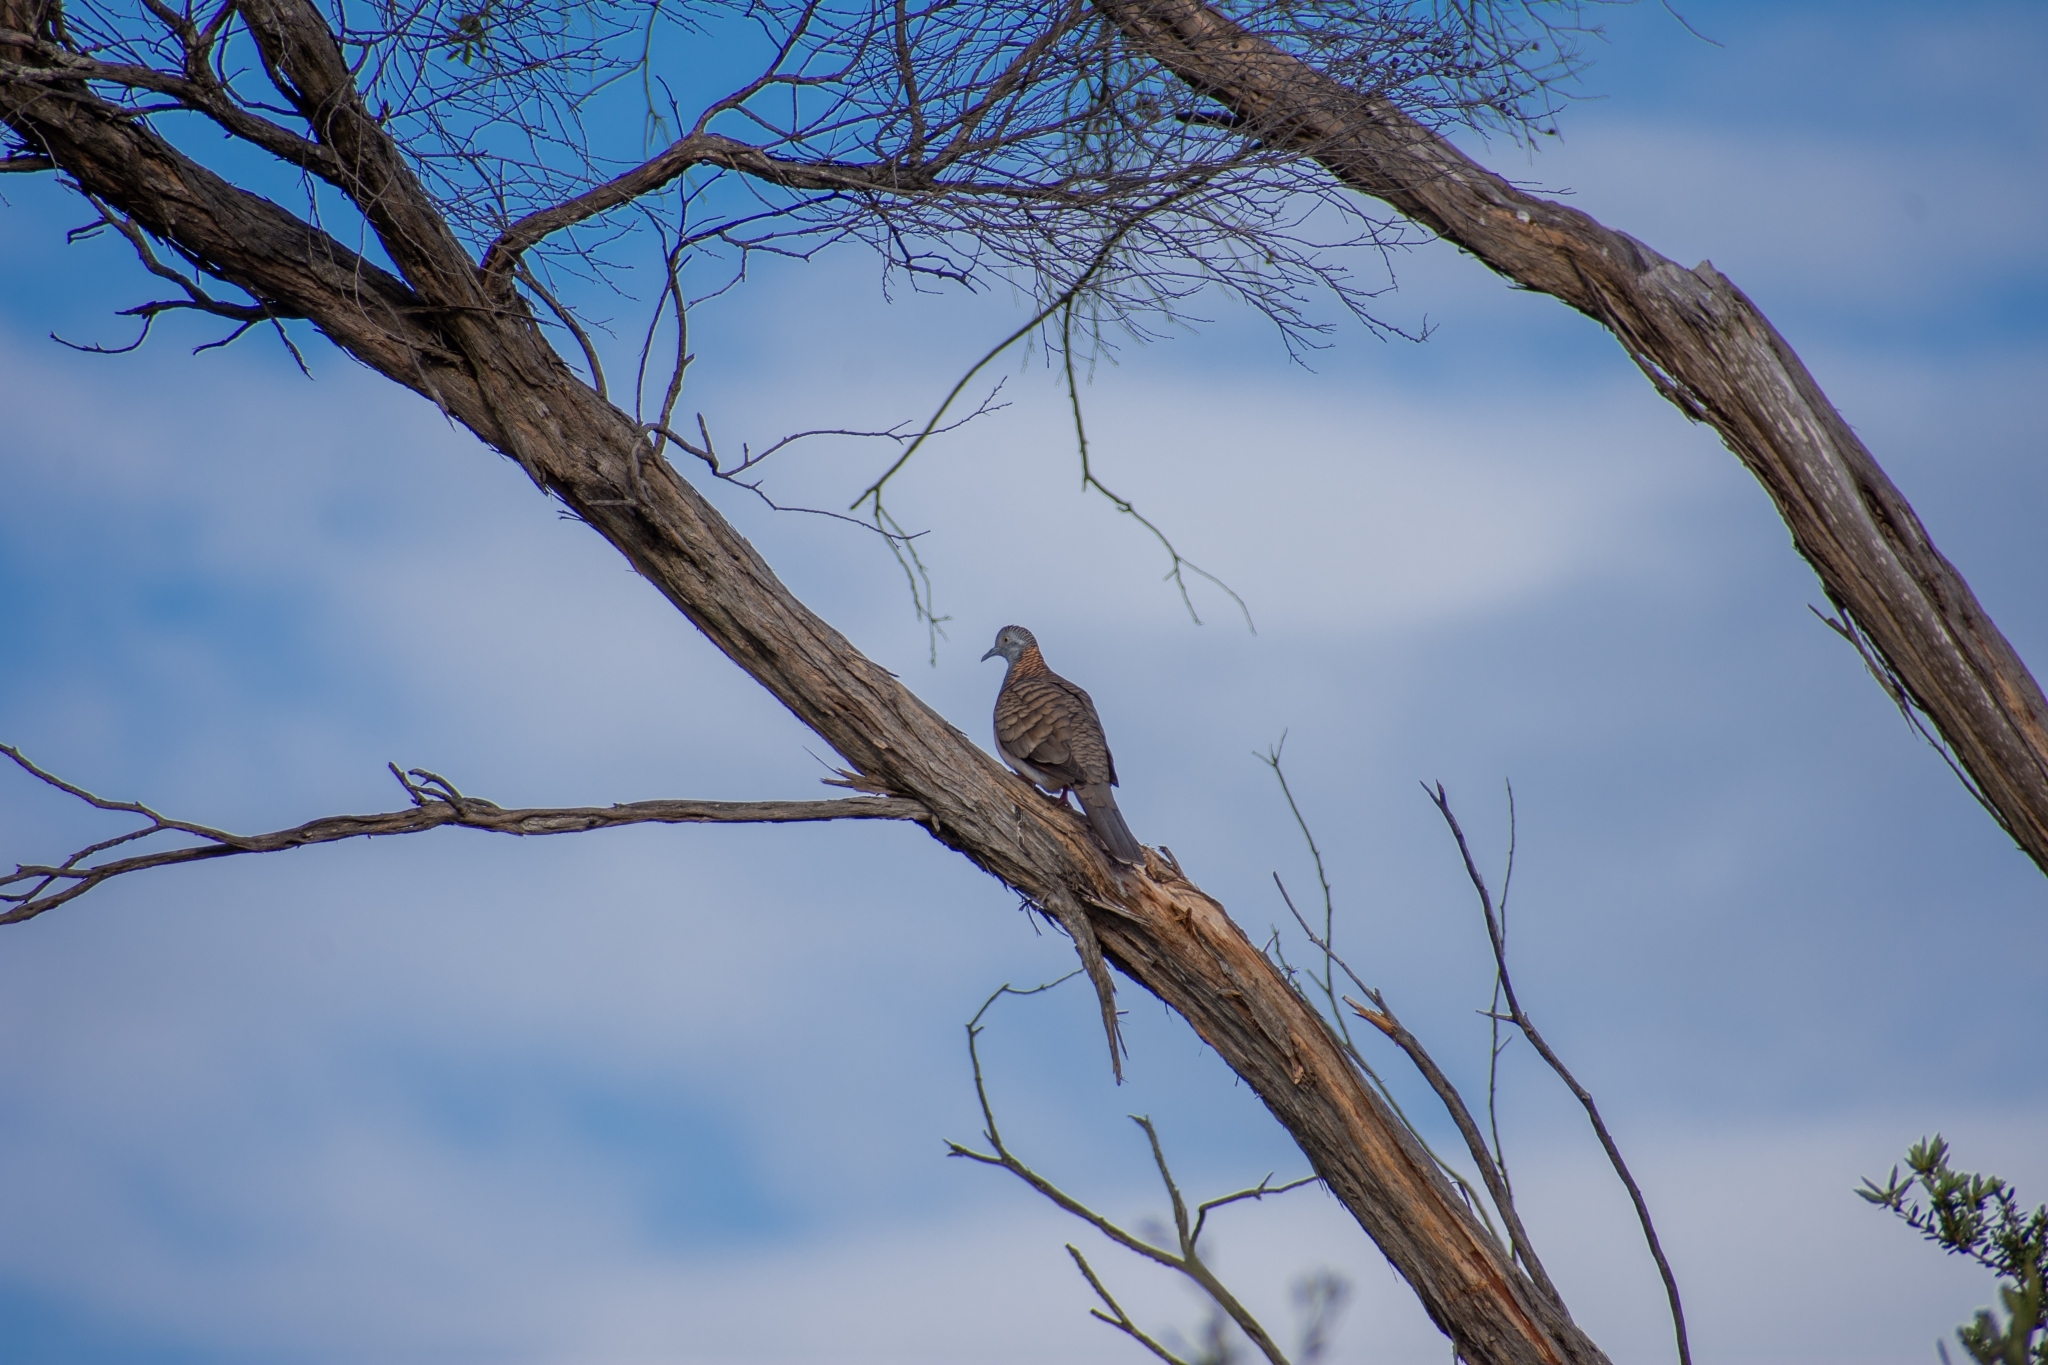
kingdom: Animalia
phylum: Chordata
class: Aves
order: Columbiformes
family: Columbidae
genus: Geopelia
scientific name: Geopelia humeralis
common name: Bar-shouldered dove
